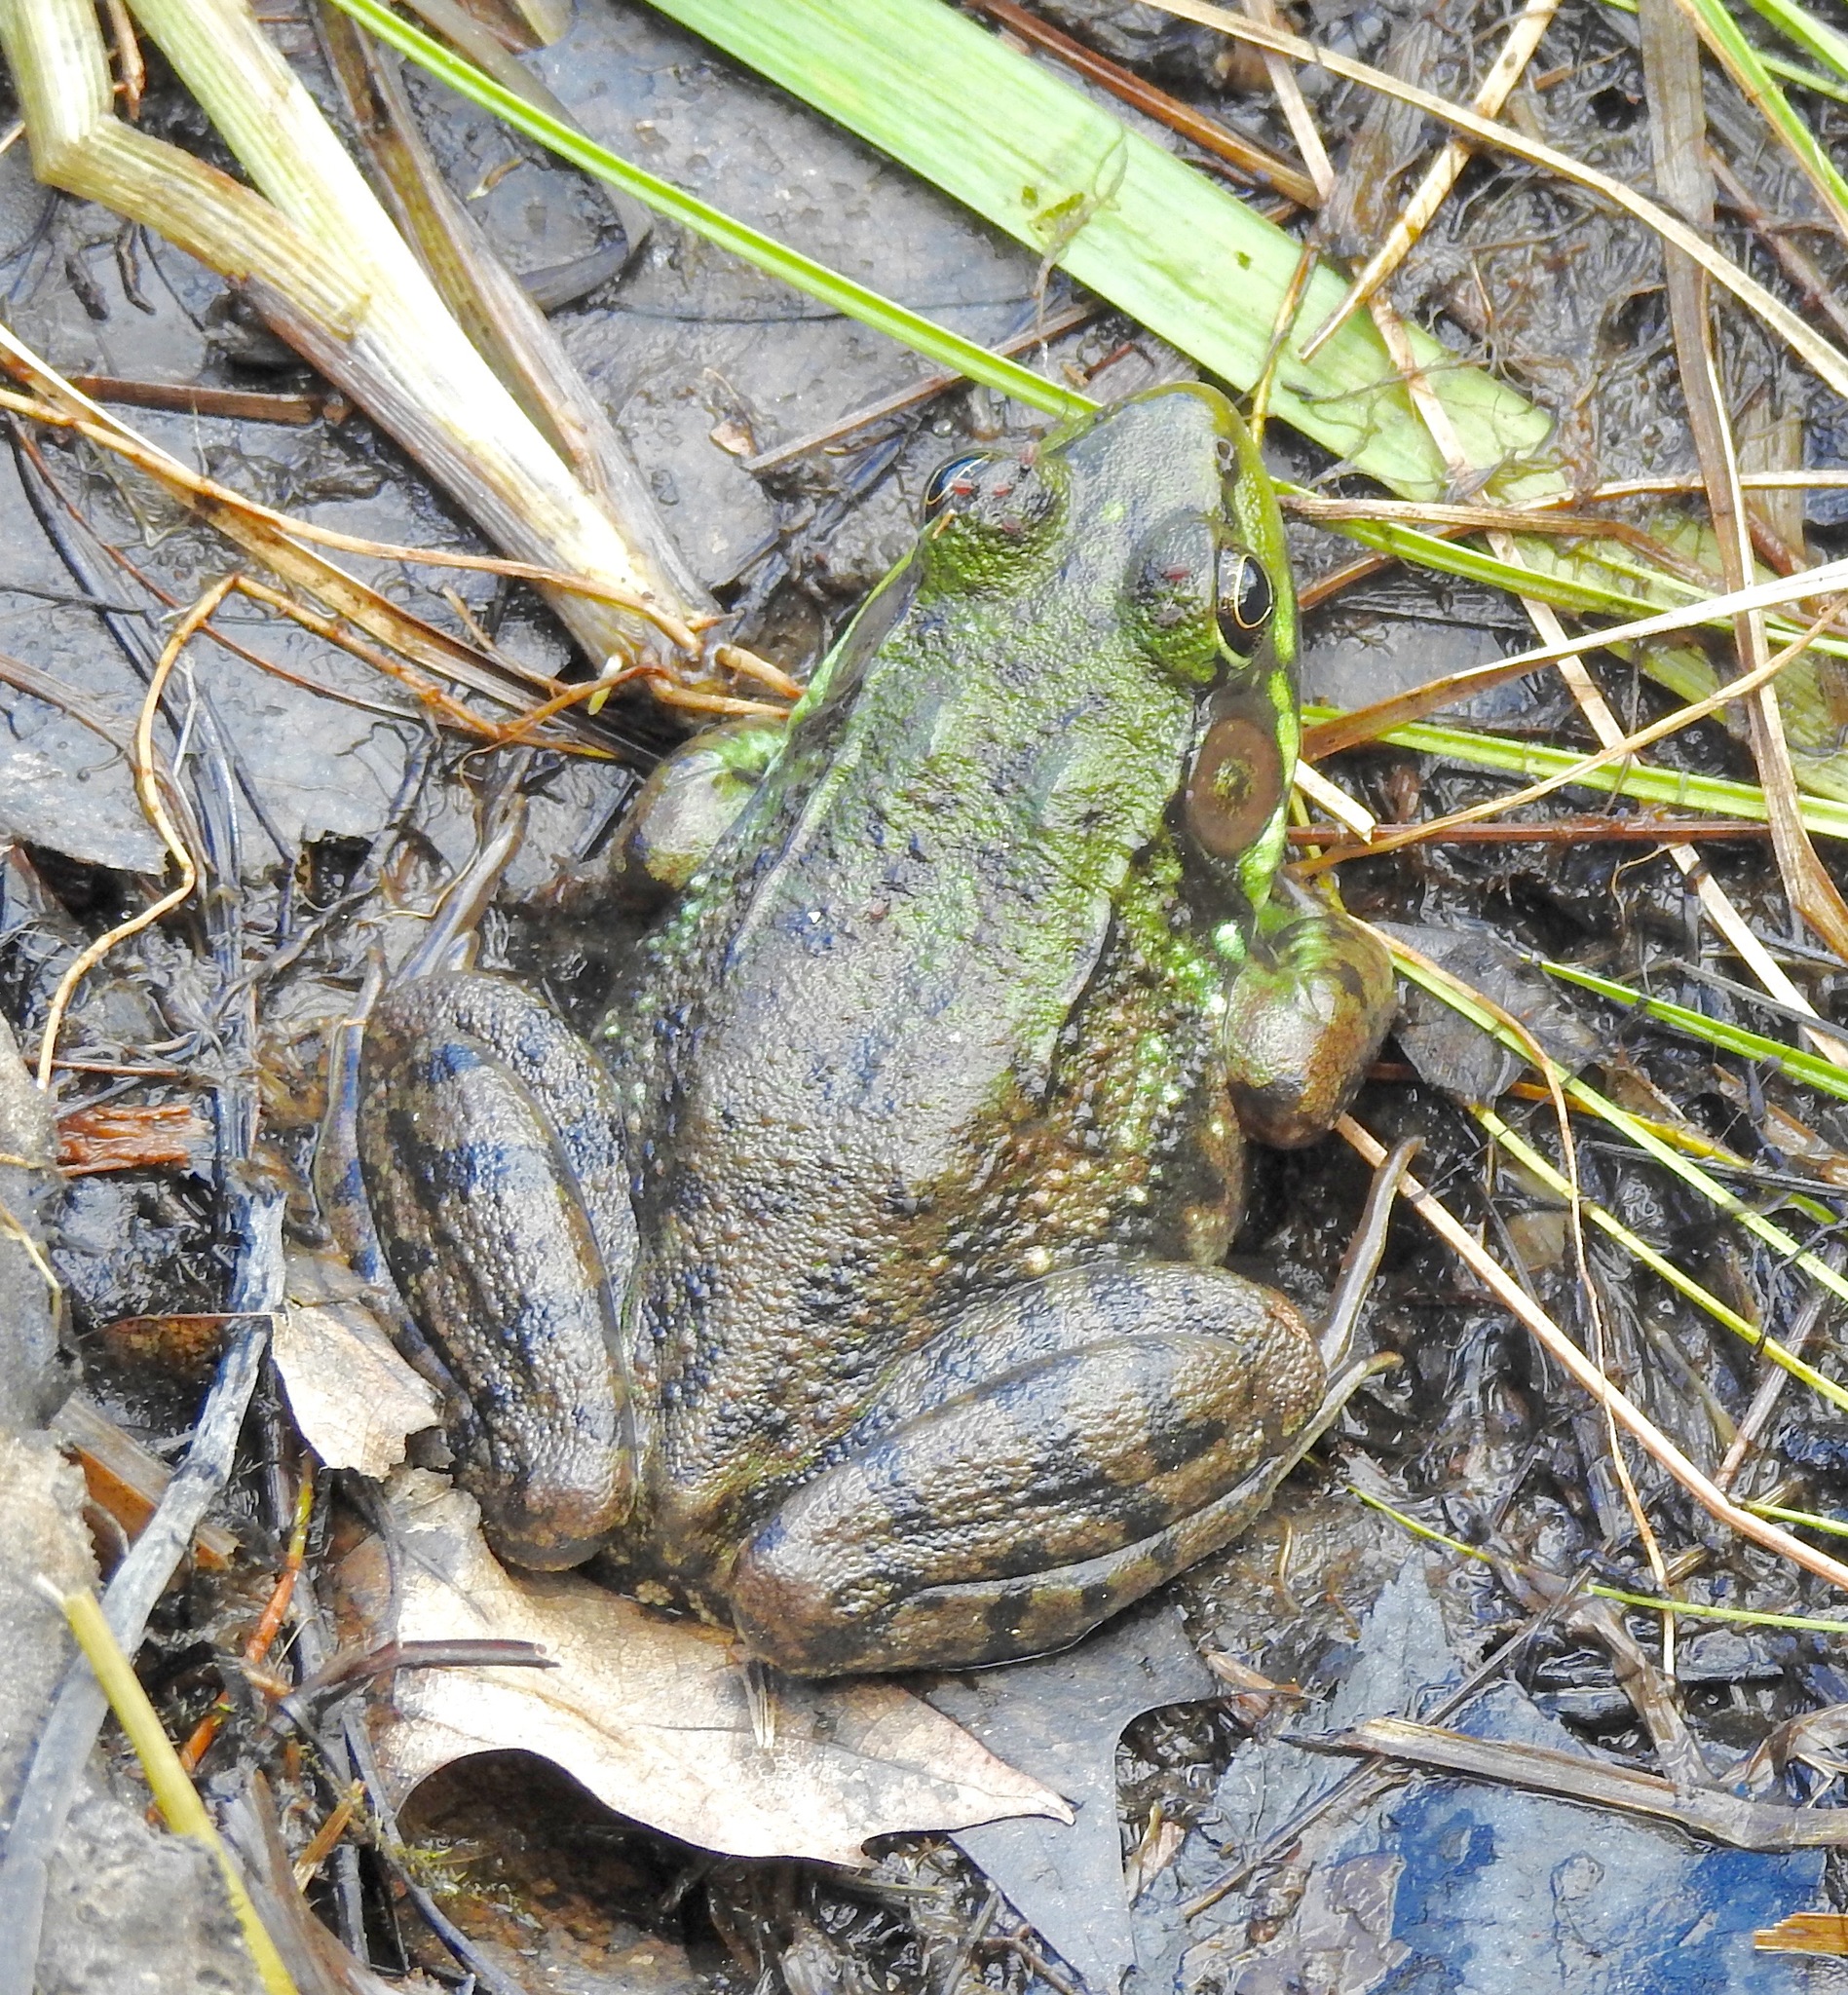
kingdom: Animalia
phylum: Chordata
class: Amphibia
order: Anura
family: Ranidae
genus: Lithobates
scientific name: Lithobates clamitans
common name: Green frog
